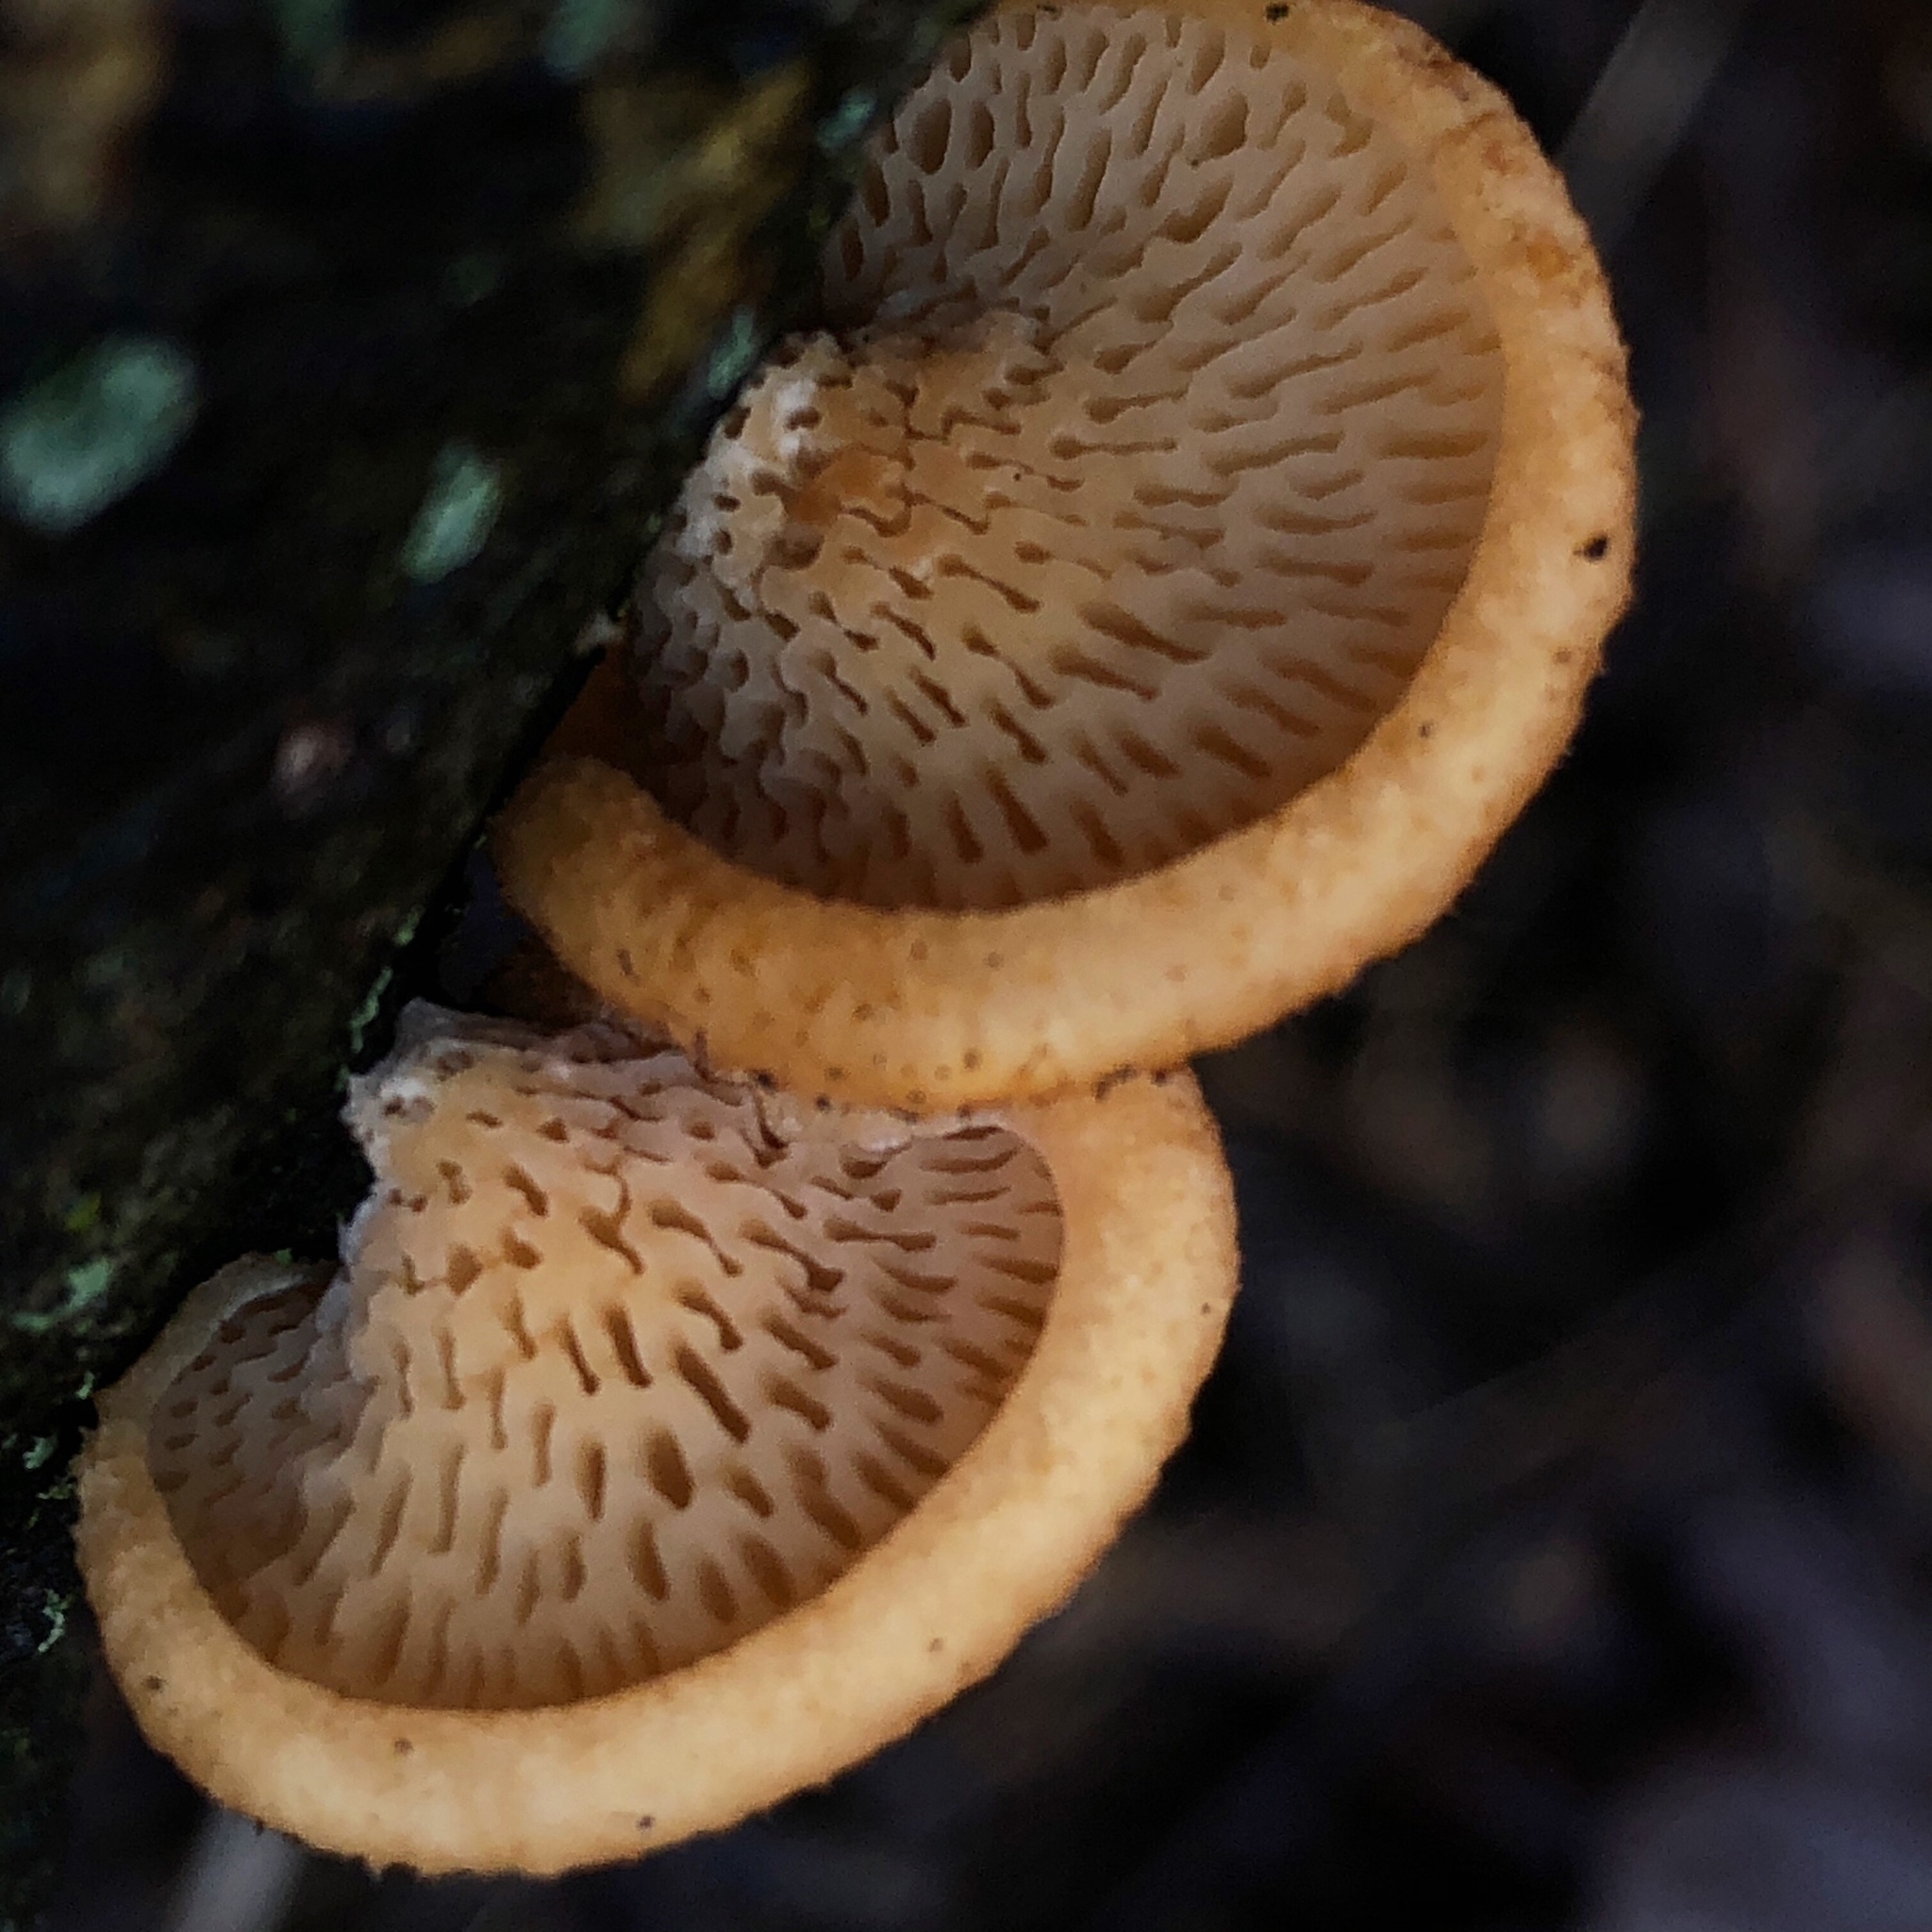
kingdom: Fungi
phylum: Basidiomycota
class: Agaricomycetes
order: Polyporales
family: Polyporaceae
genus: Neofavolus
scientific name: Neofavolus alveolaris
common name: Hexagonal-pored polypore
